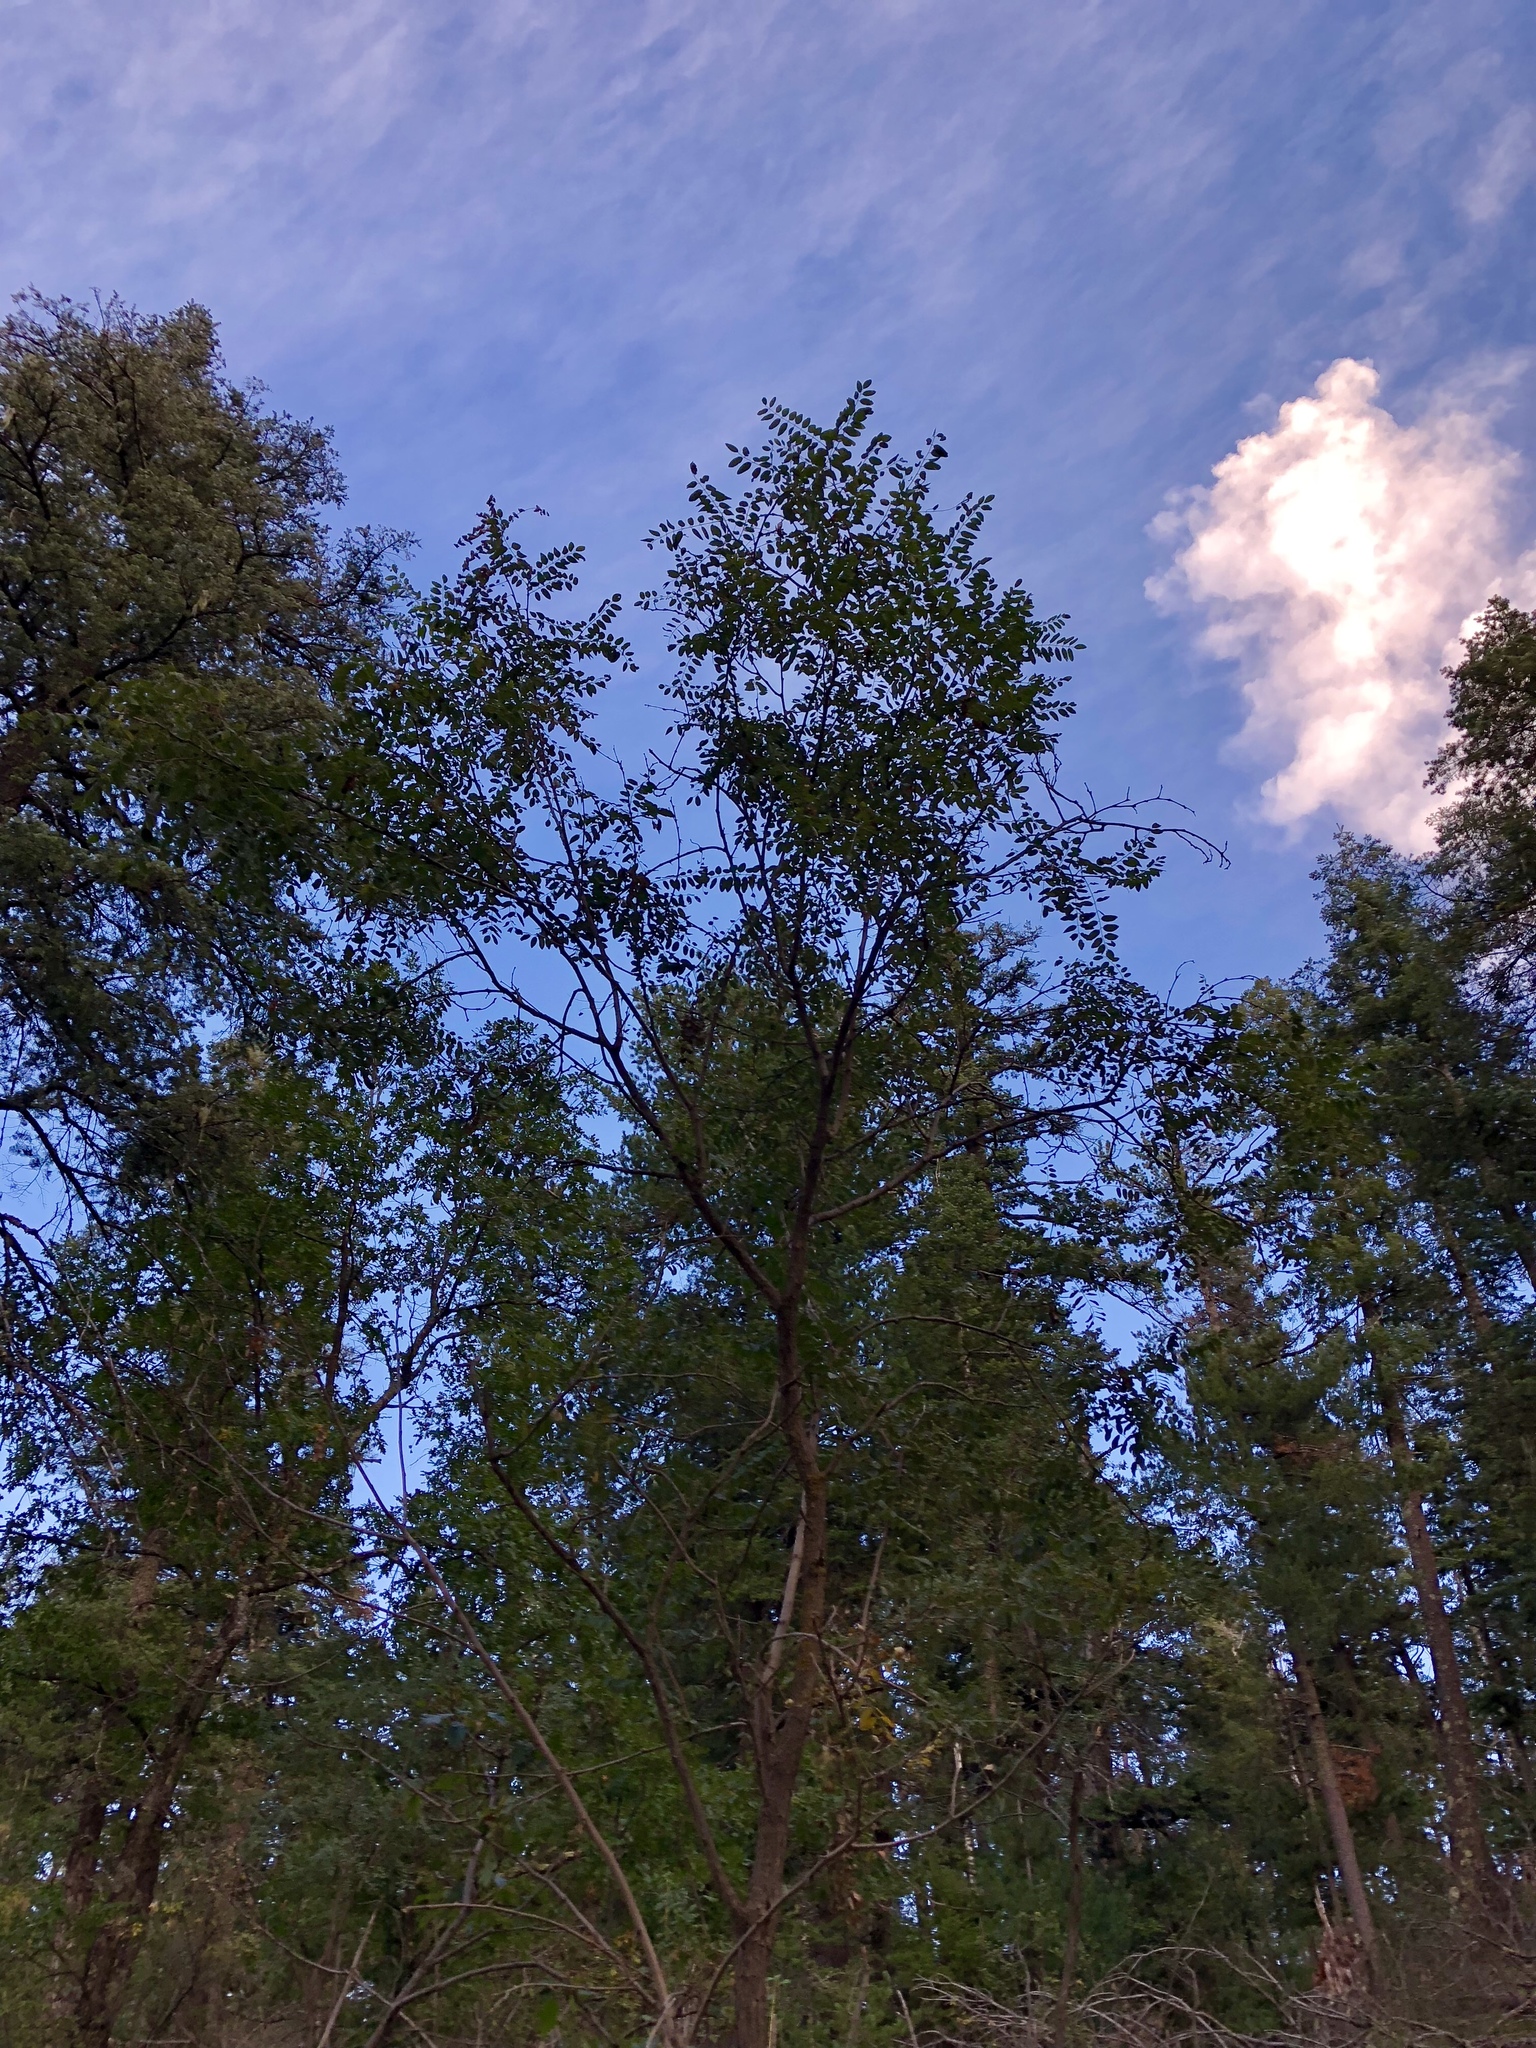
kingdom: Plantae
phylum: Tracheophyta
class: Magnoliopsida
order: Fabales
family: Fabaceae
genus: Robinia
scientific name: Robinia neomexicana
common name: New mexico locust
